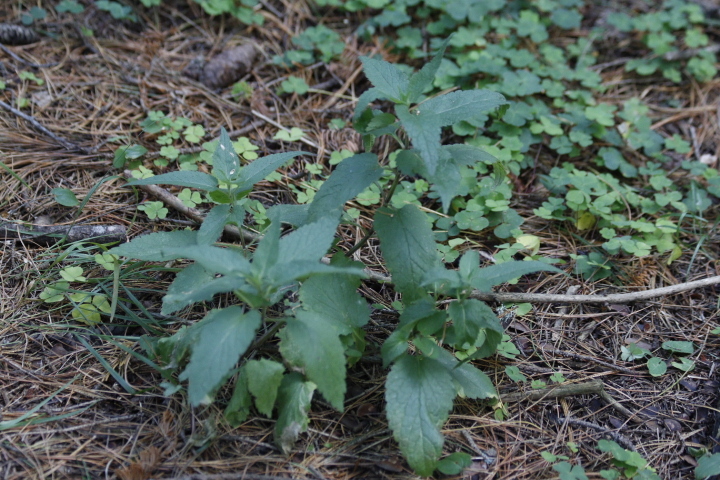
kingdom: Plantae
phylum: Tracheophyta
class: Magnoliopsida
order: Lamiales
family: Lamiaceae
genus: Lamium
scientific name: Lamium album
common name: White dead-nettle
